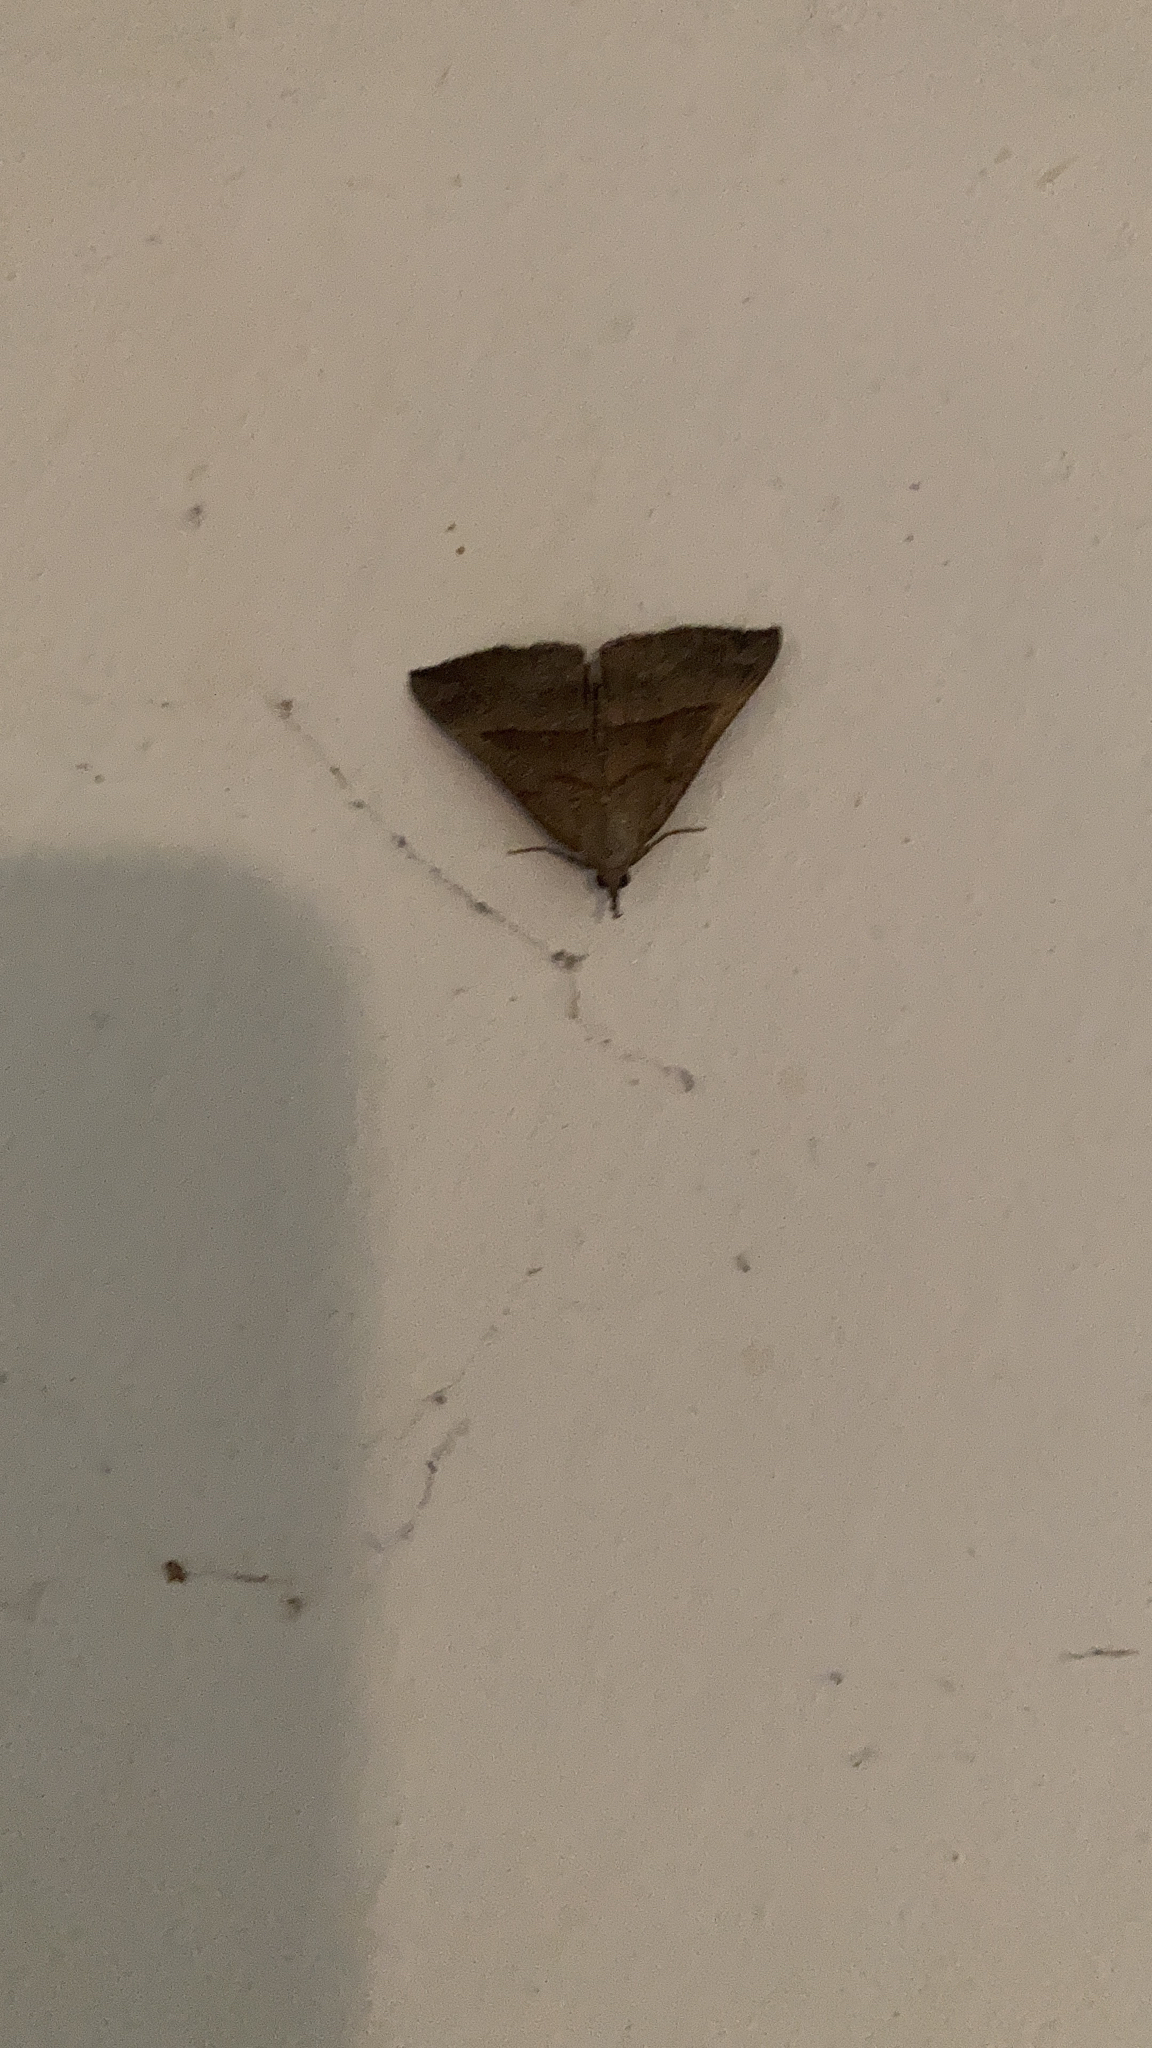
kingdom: Animalia
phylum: Arthropoda
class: Insecta
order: Lepidoptera
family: Erebidae
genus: Hypena
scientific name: Hypena proboscidalis
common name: Snout
